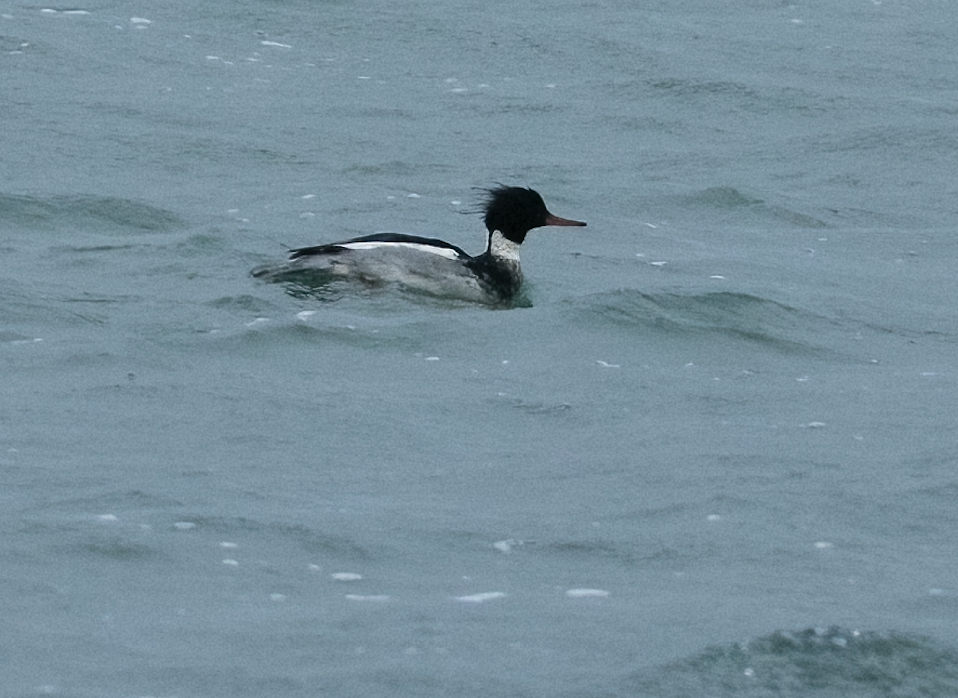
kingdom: Animalia
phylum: Chordata
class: Aves
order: Anseriformes
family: Anatidae
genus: Mergus
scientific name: Mergus serrator
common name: Red-breasted merganser
